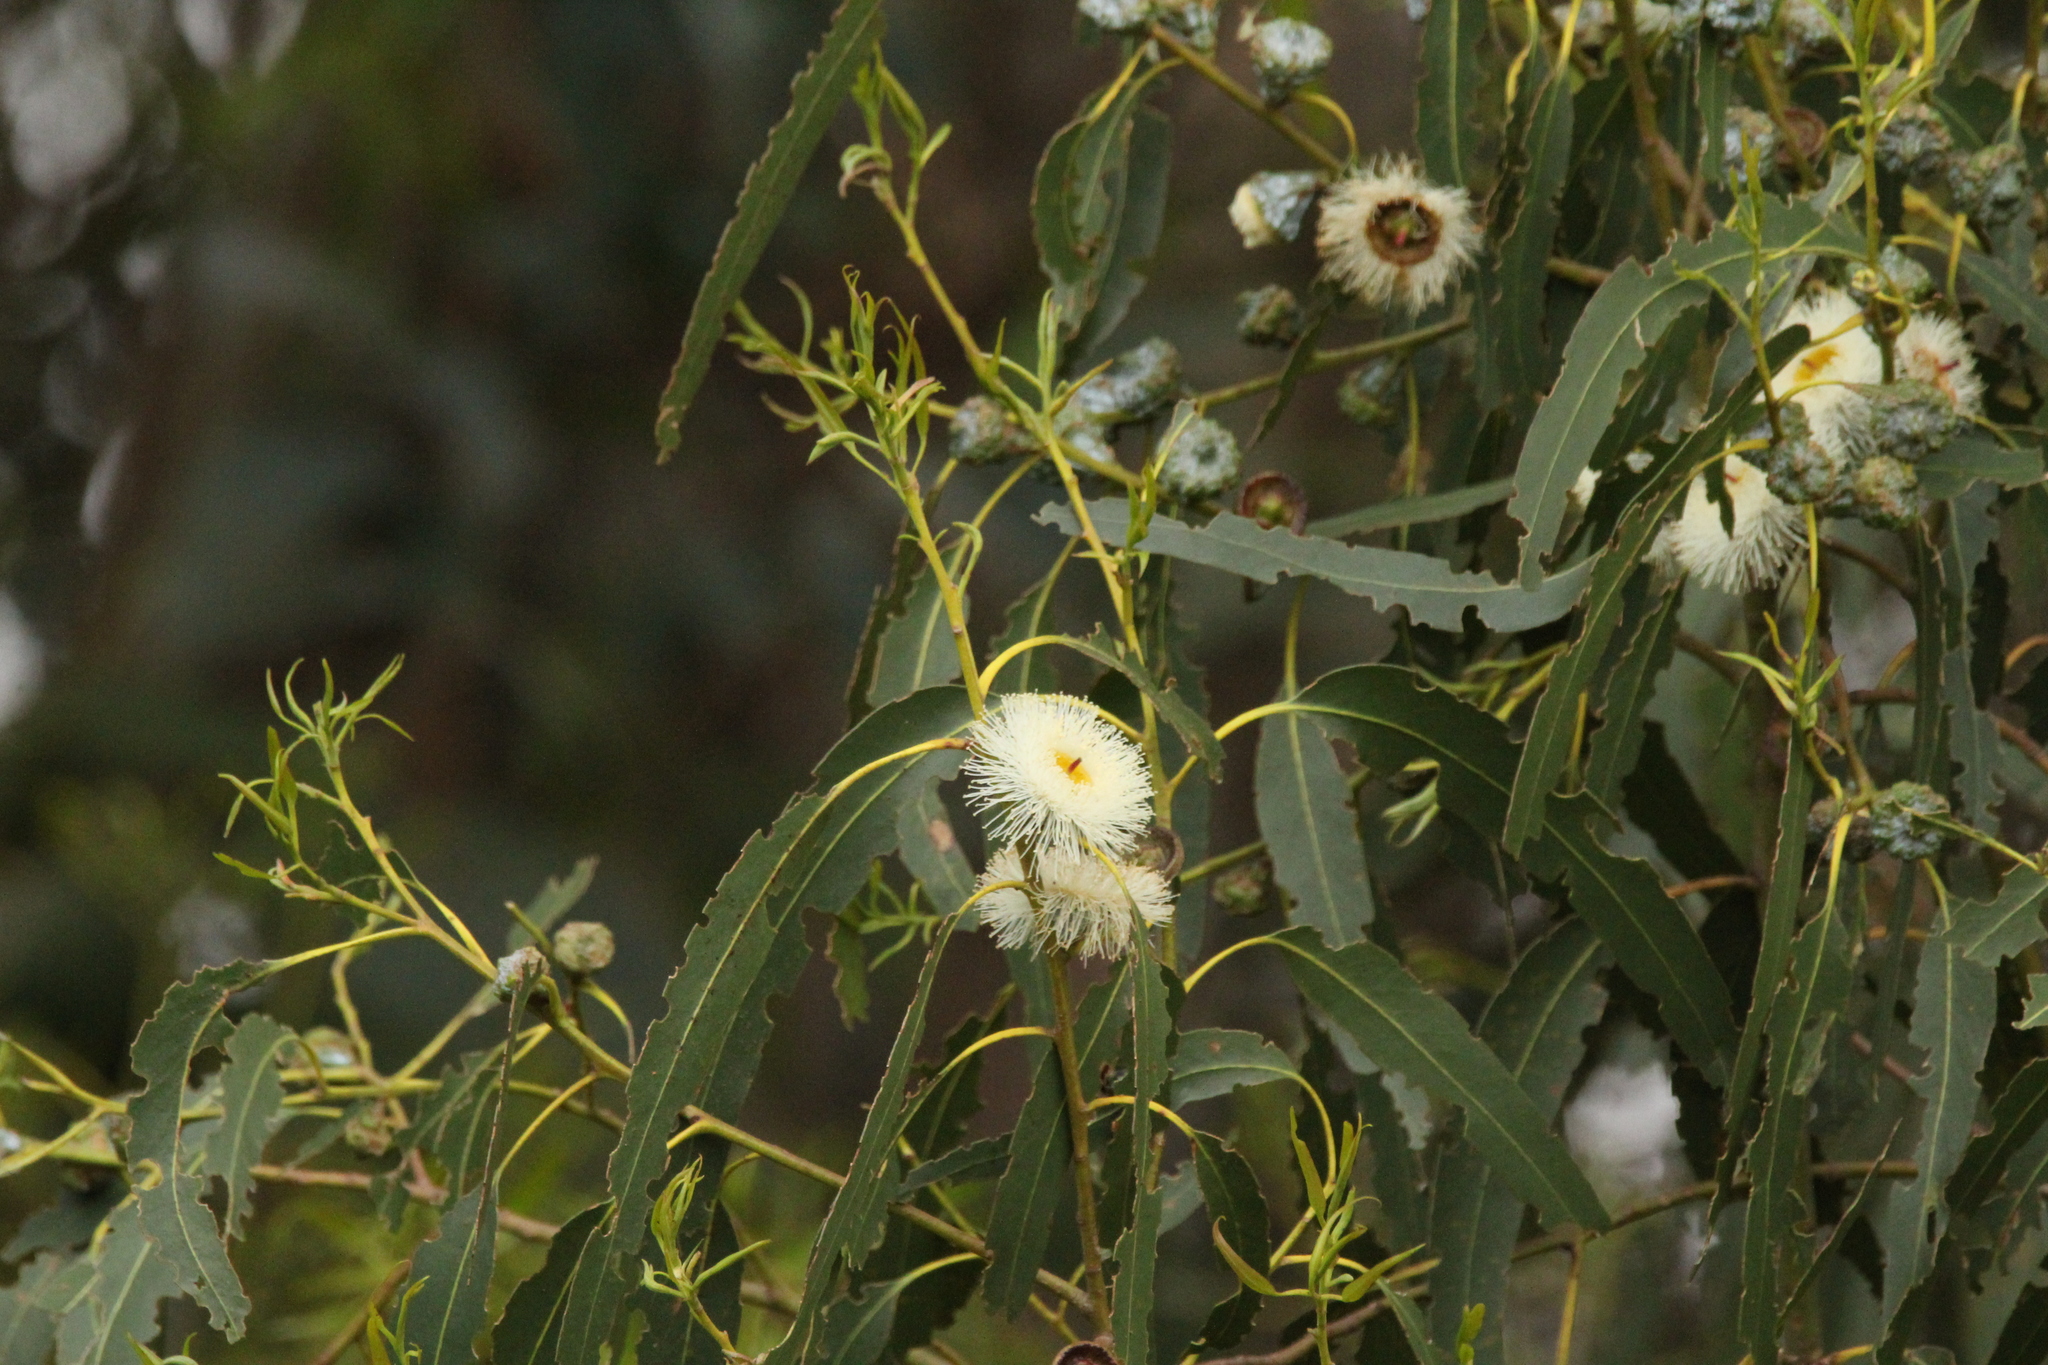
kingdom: Plantae
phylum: Tracheophyta
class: Magnoliopsida
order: Myrtales
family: Myrtaceae
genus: Eucalyptus
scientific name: Eucalyptus globulus
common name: Southern blue-gum
